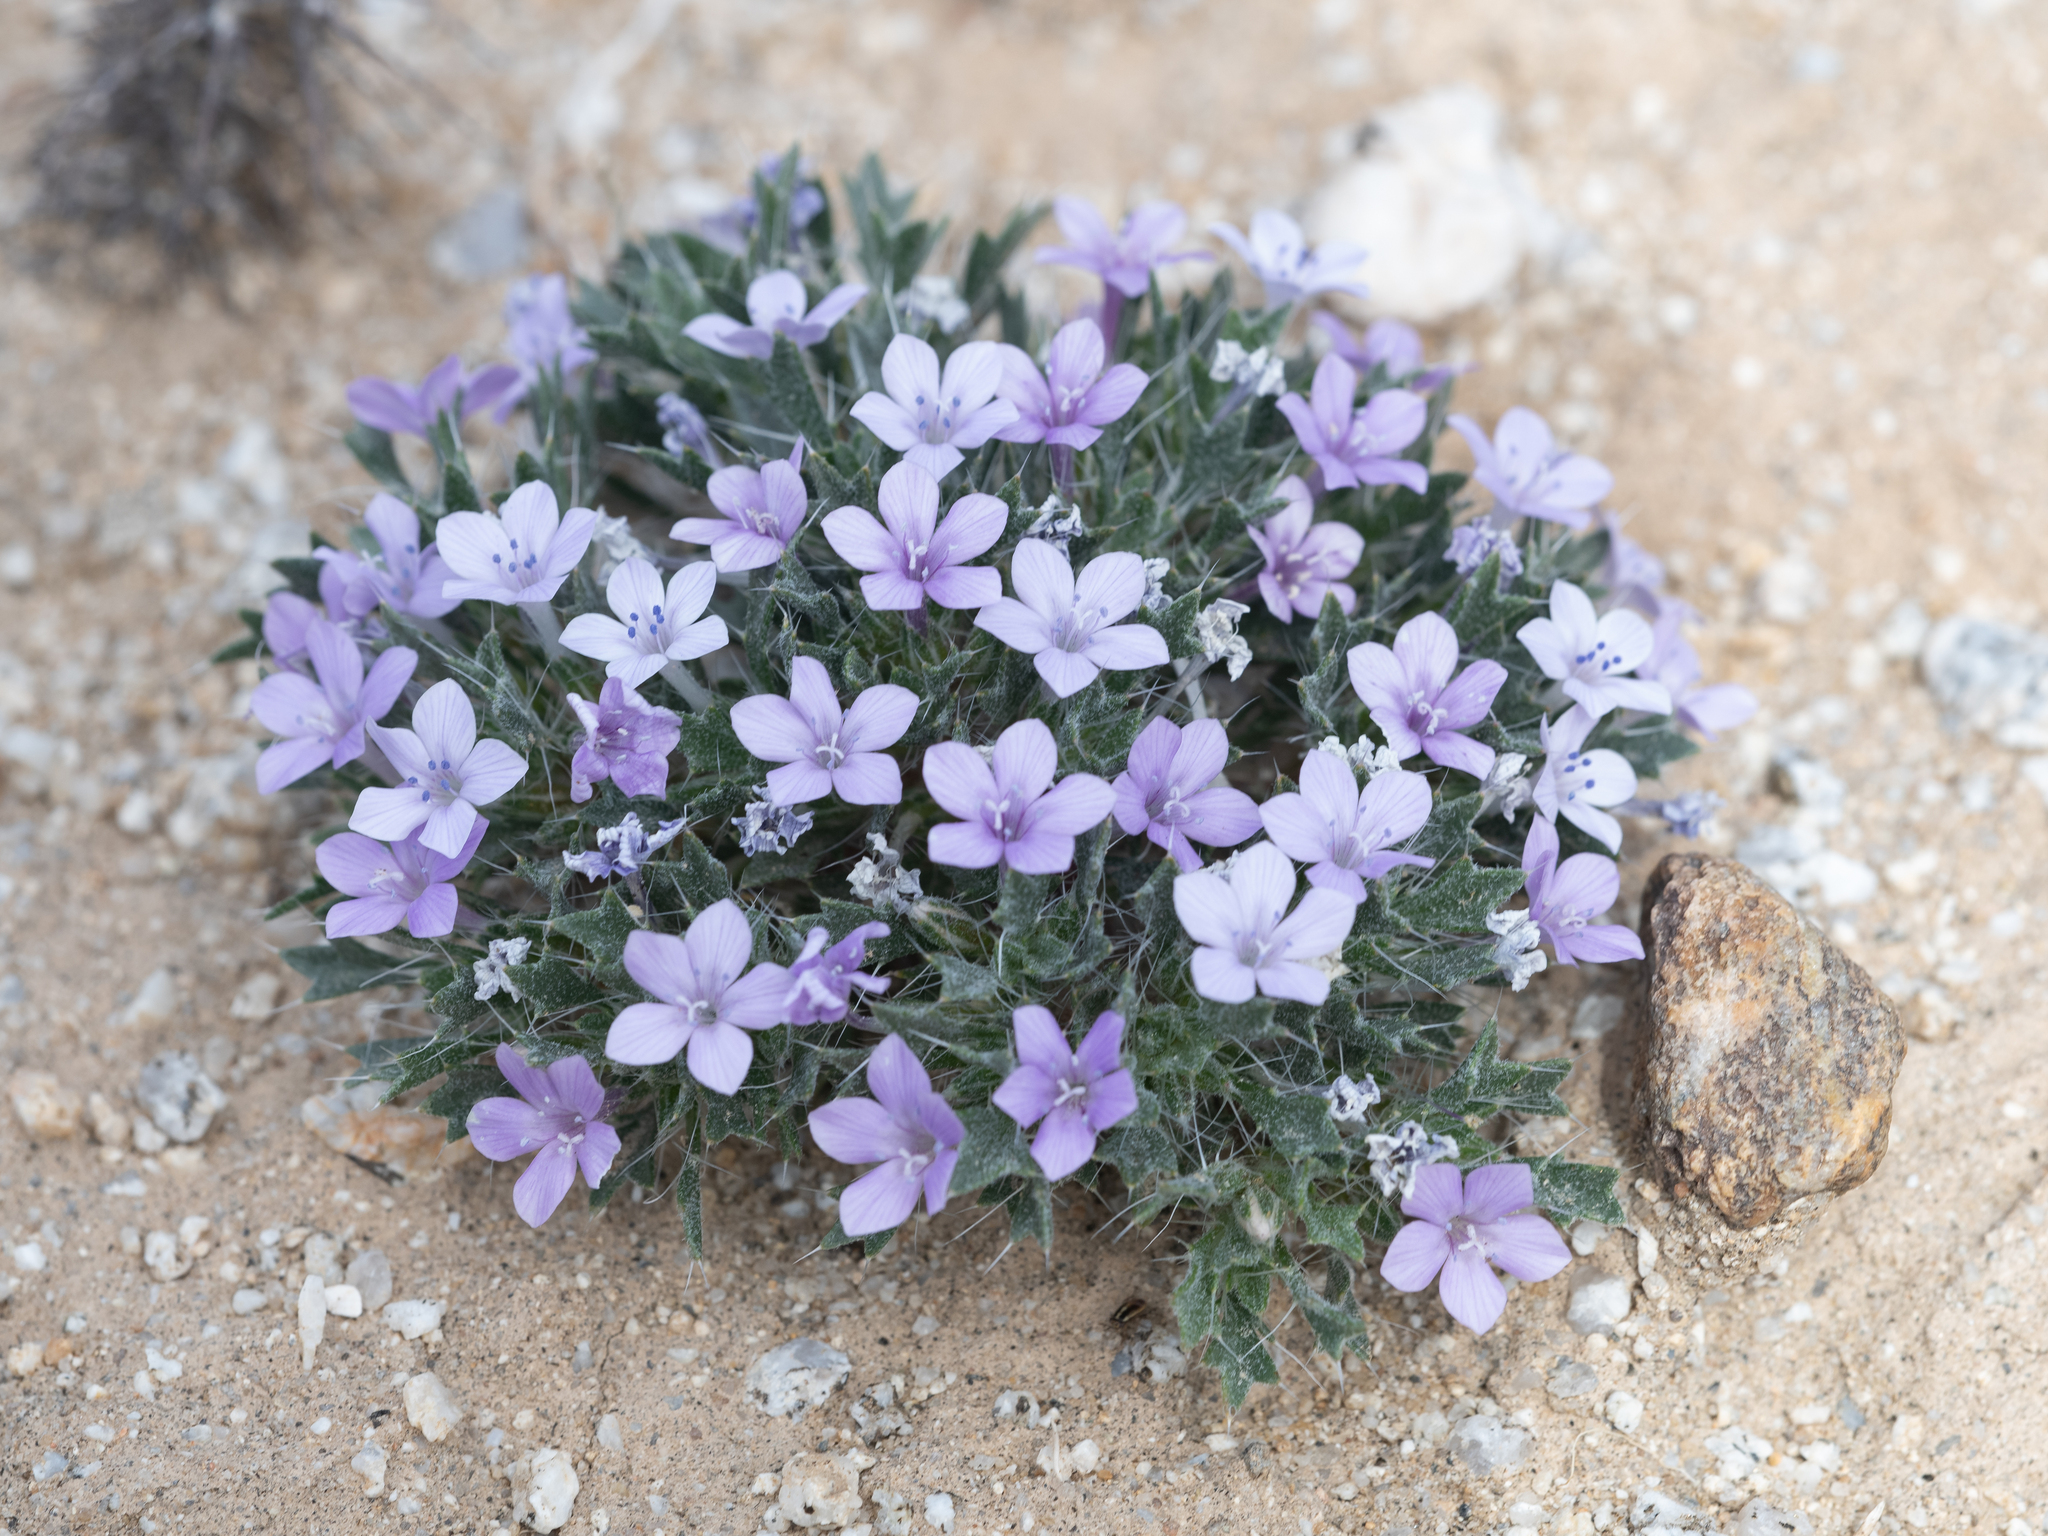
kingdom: Plantae
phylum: Tracheophyta
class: Magnoliopsida
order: Ericales
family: Polemoniaceae
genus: Langloisia
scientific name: Langloisia setosissima
